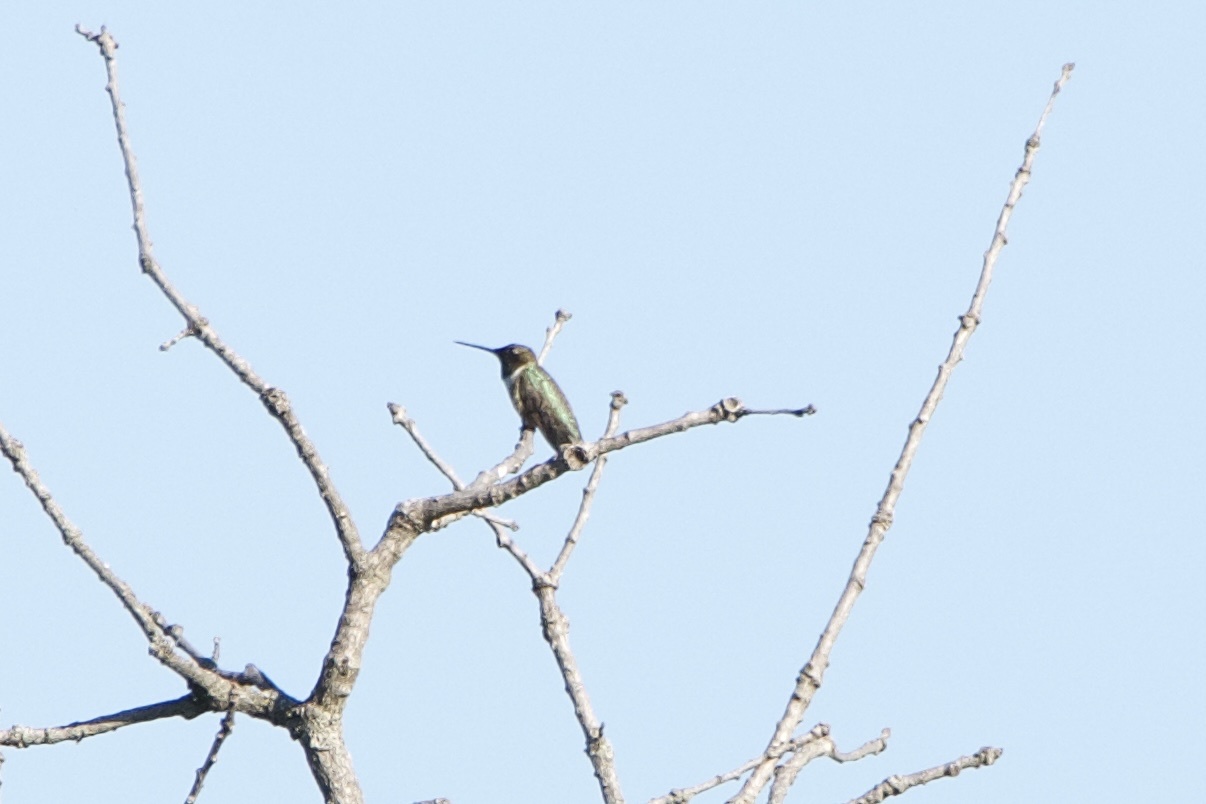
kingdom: Animalia
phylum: Chordata
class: Aves
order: Apodiformes
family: Trochilidae
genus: Archilochus
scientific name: Archilochus alexandri
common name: Black-chinned hummingbird
